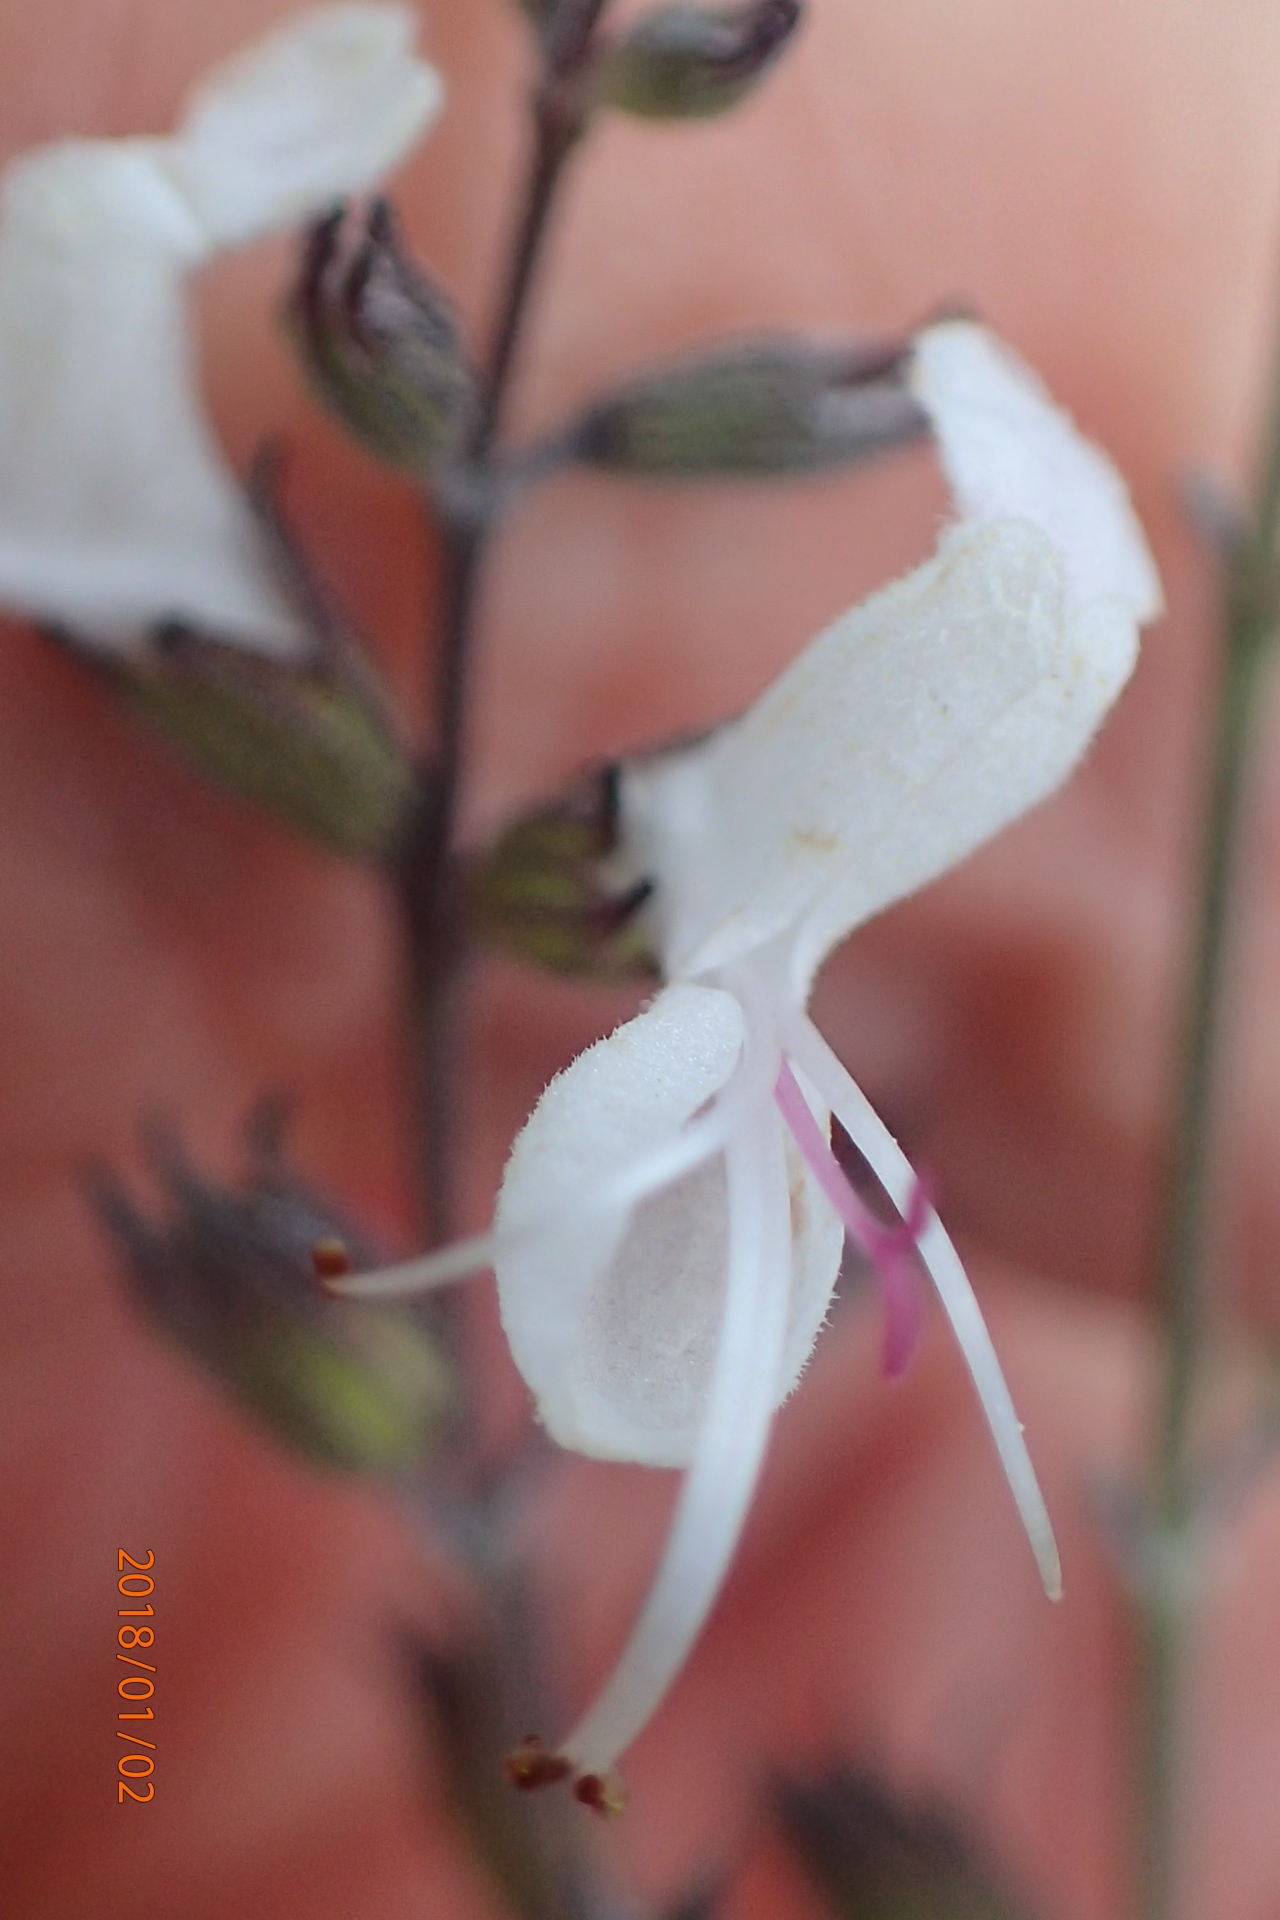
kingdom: Plantae
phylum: Tracheophyta
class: Magnoliopsida
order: Lamiales
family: Lamiaceae
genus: Syncolostemon
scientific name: Syncolostemon argenteus
